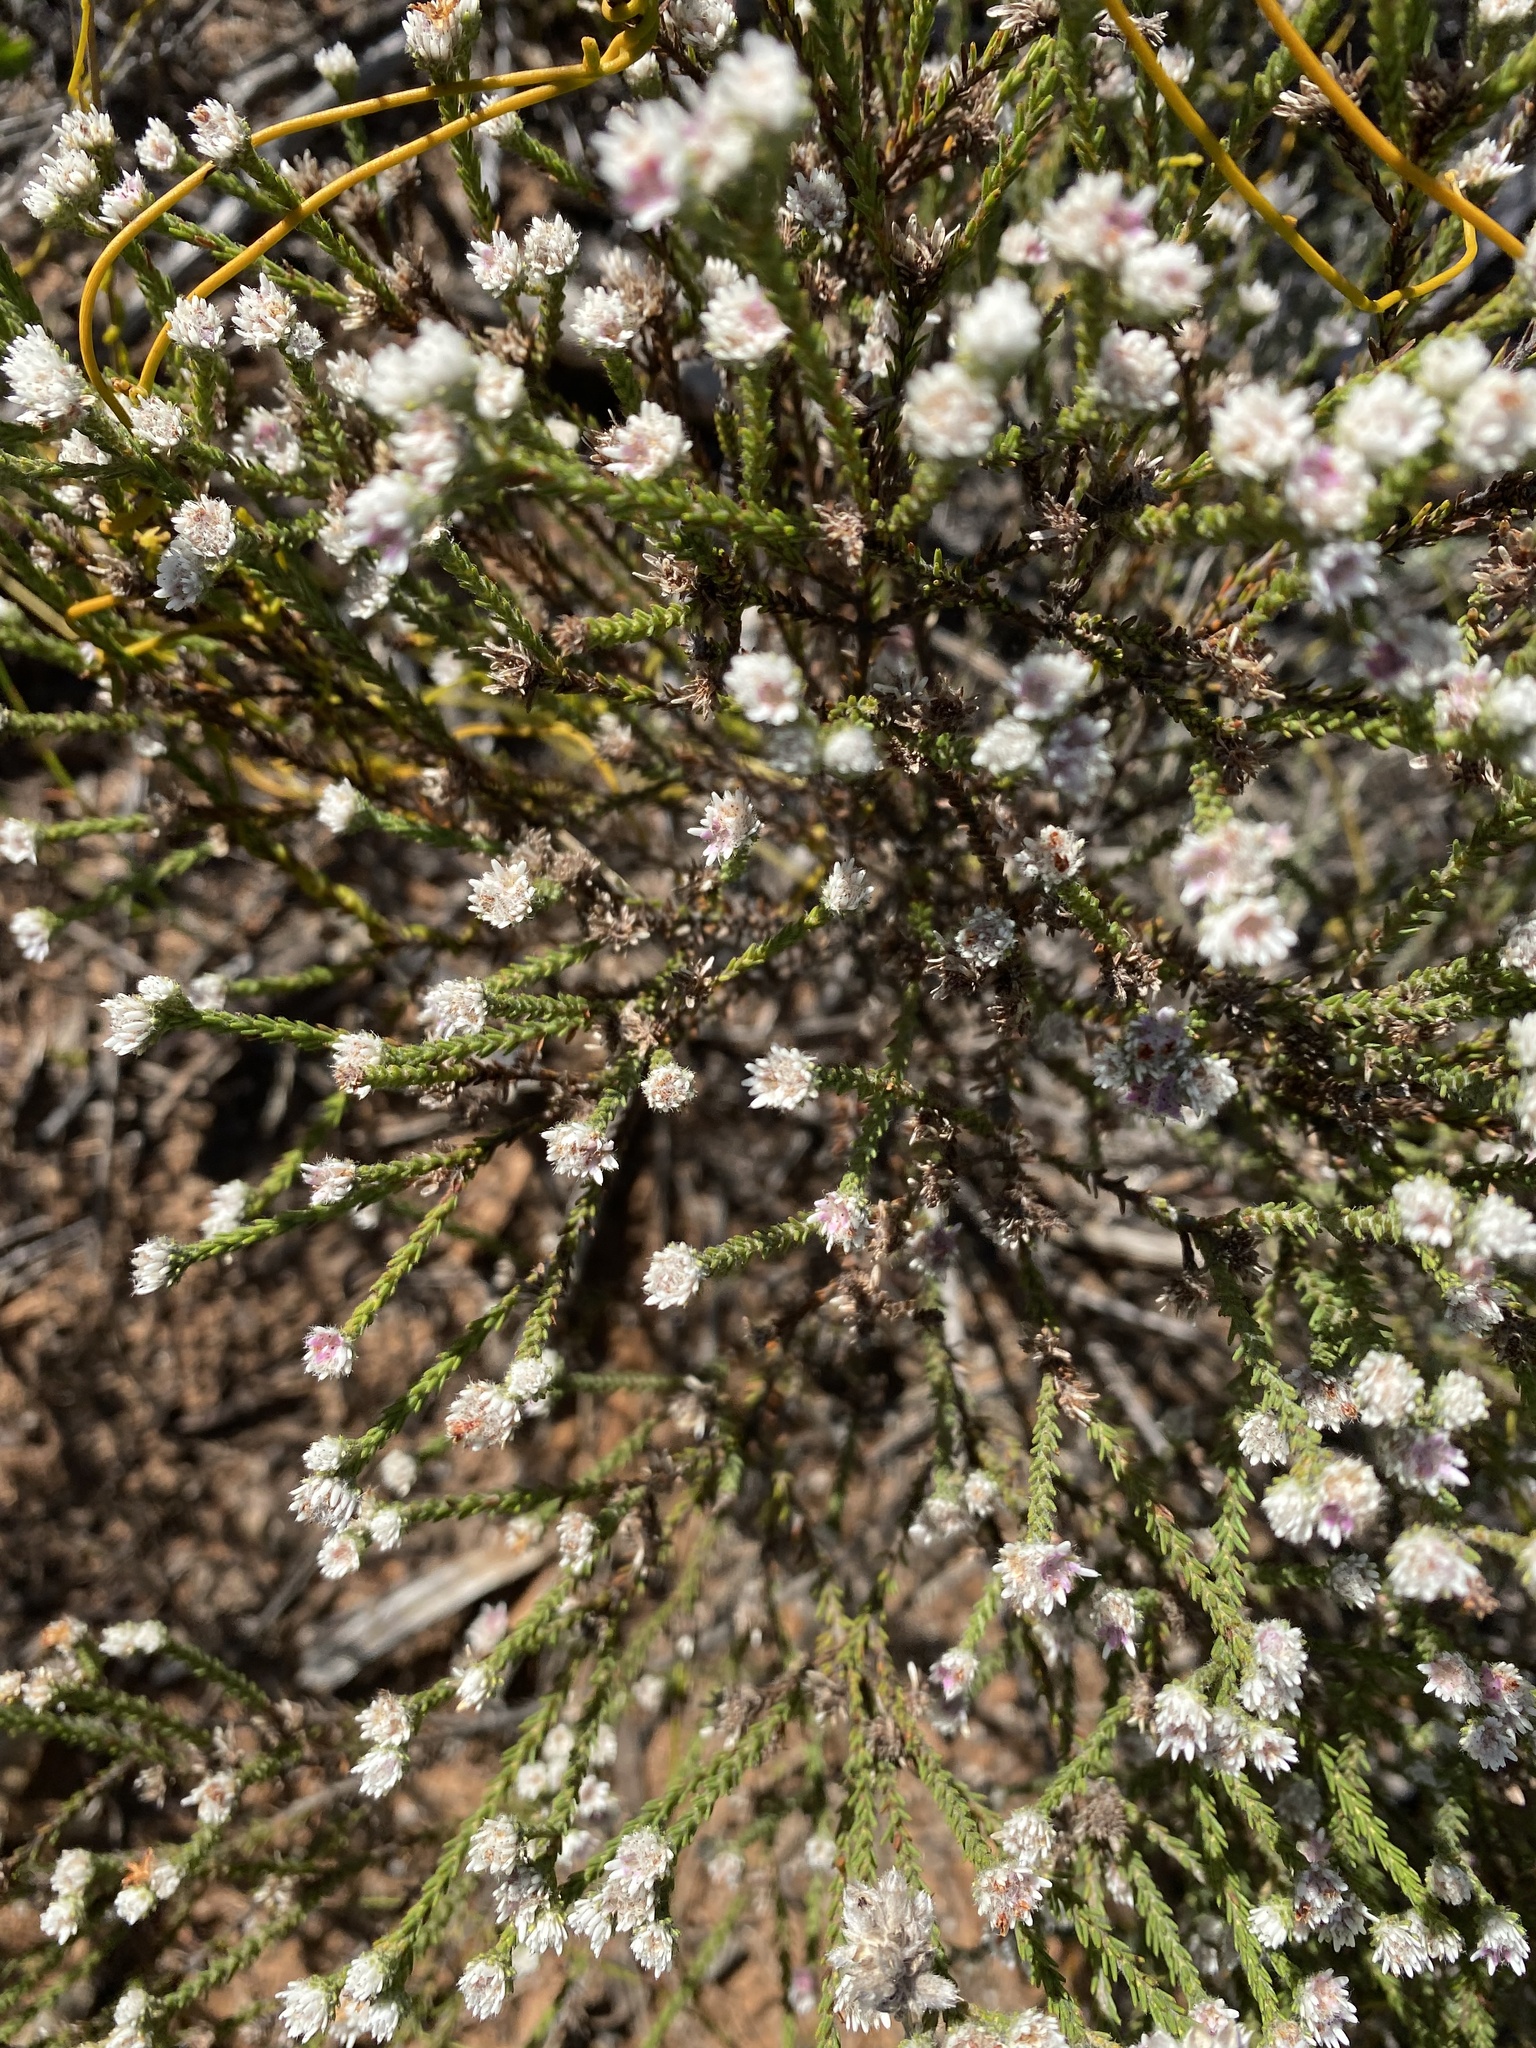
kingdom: Plantae
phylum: Tracheophyta
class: Magnoliopsida
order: Bruniales
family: Bruniaceae
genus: Staavia
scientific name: Staavia radiata
